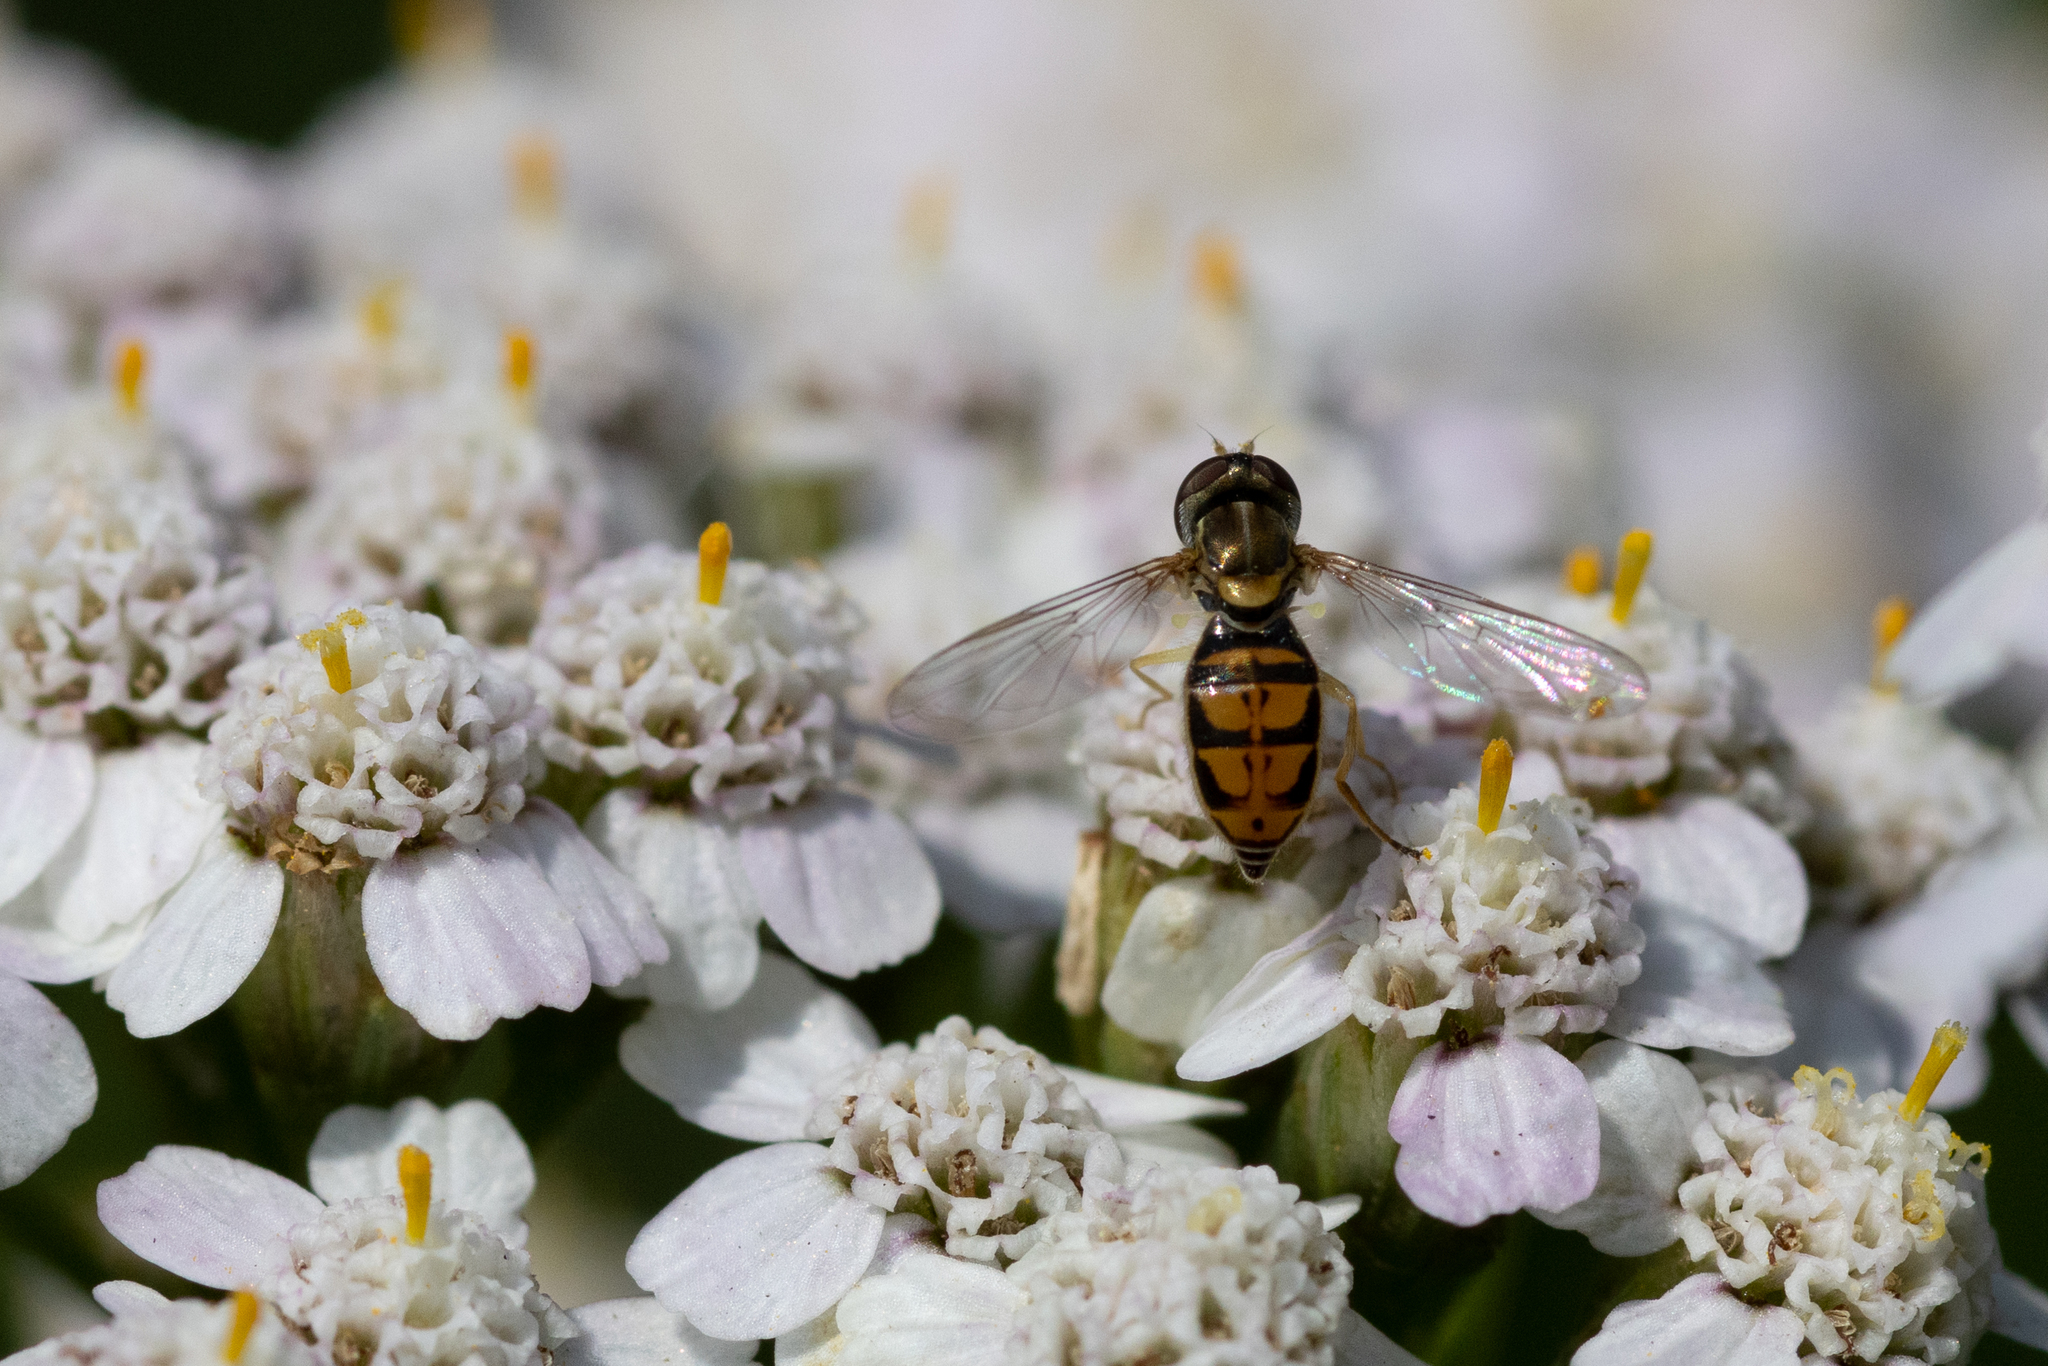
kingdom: Animalia
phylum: Arthropoda
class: Insecta
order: Diptera
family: Syrphidae
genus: Toxomerus
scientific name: Toxomerus marginatus
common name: Syrphid fly
